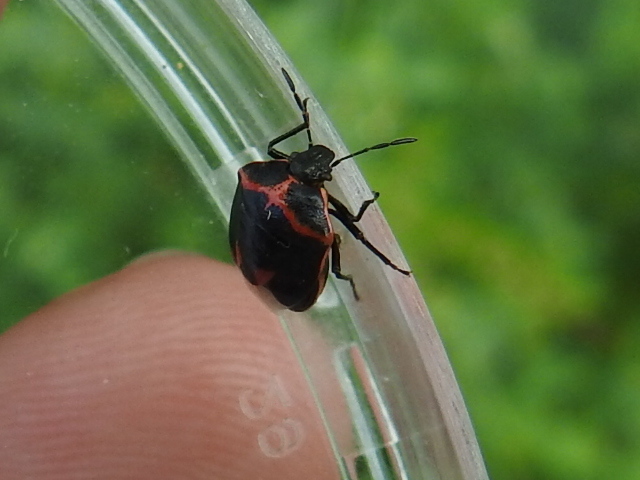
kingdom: Animalia
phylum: Arthropoda
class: Insecta
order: Hemiptera
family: Pentatomidae
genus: Cosmopepla
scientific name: Cosmopepla lintneriana
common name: Twice-stabbed stink bug
